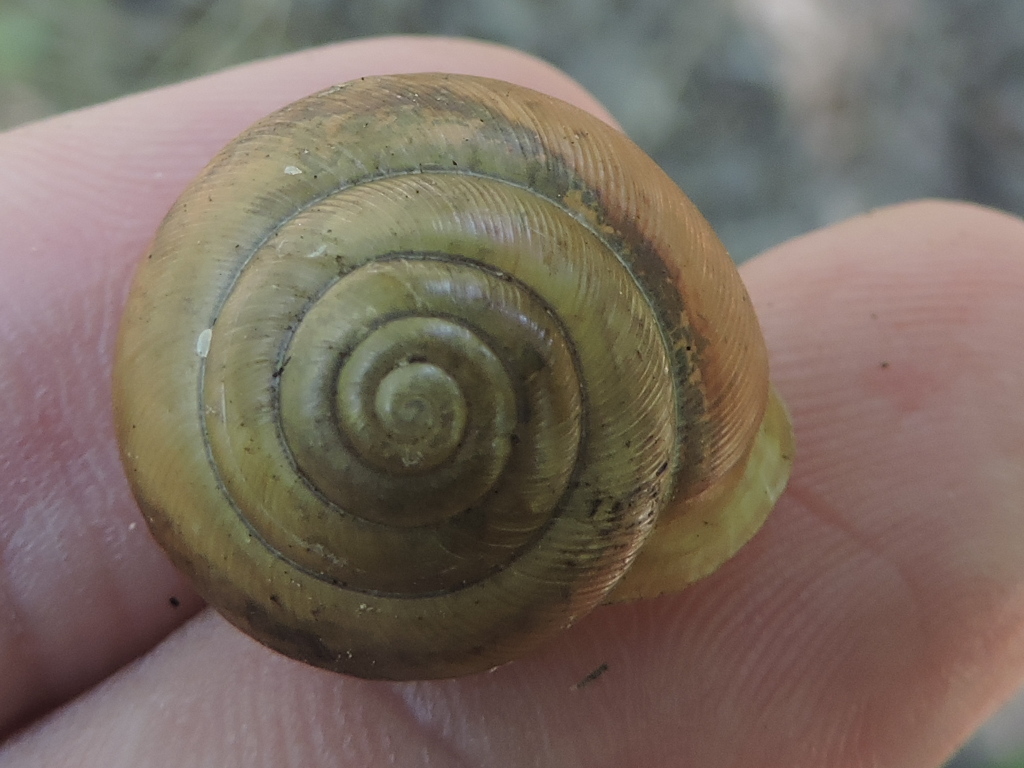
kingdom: Animalia
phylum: Mollusca
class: Gastropoda
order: Stylommatophora
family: Polygyridae
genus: Patera
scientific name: Patera roemeri
